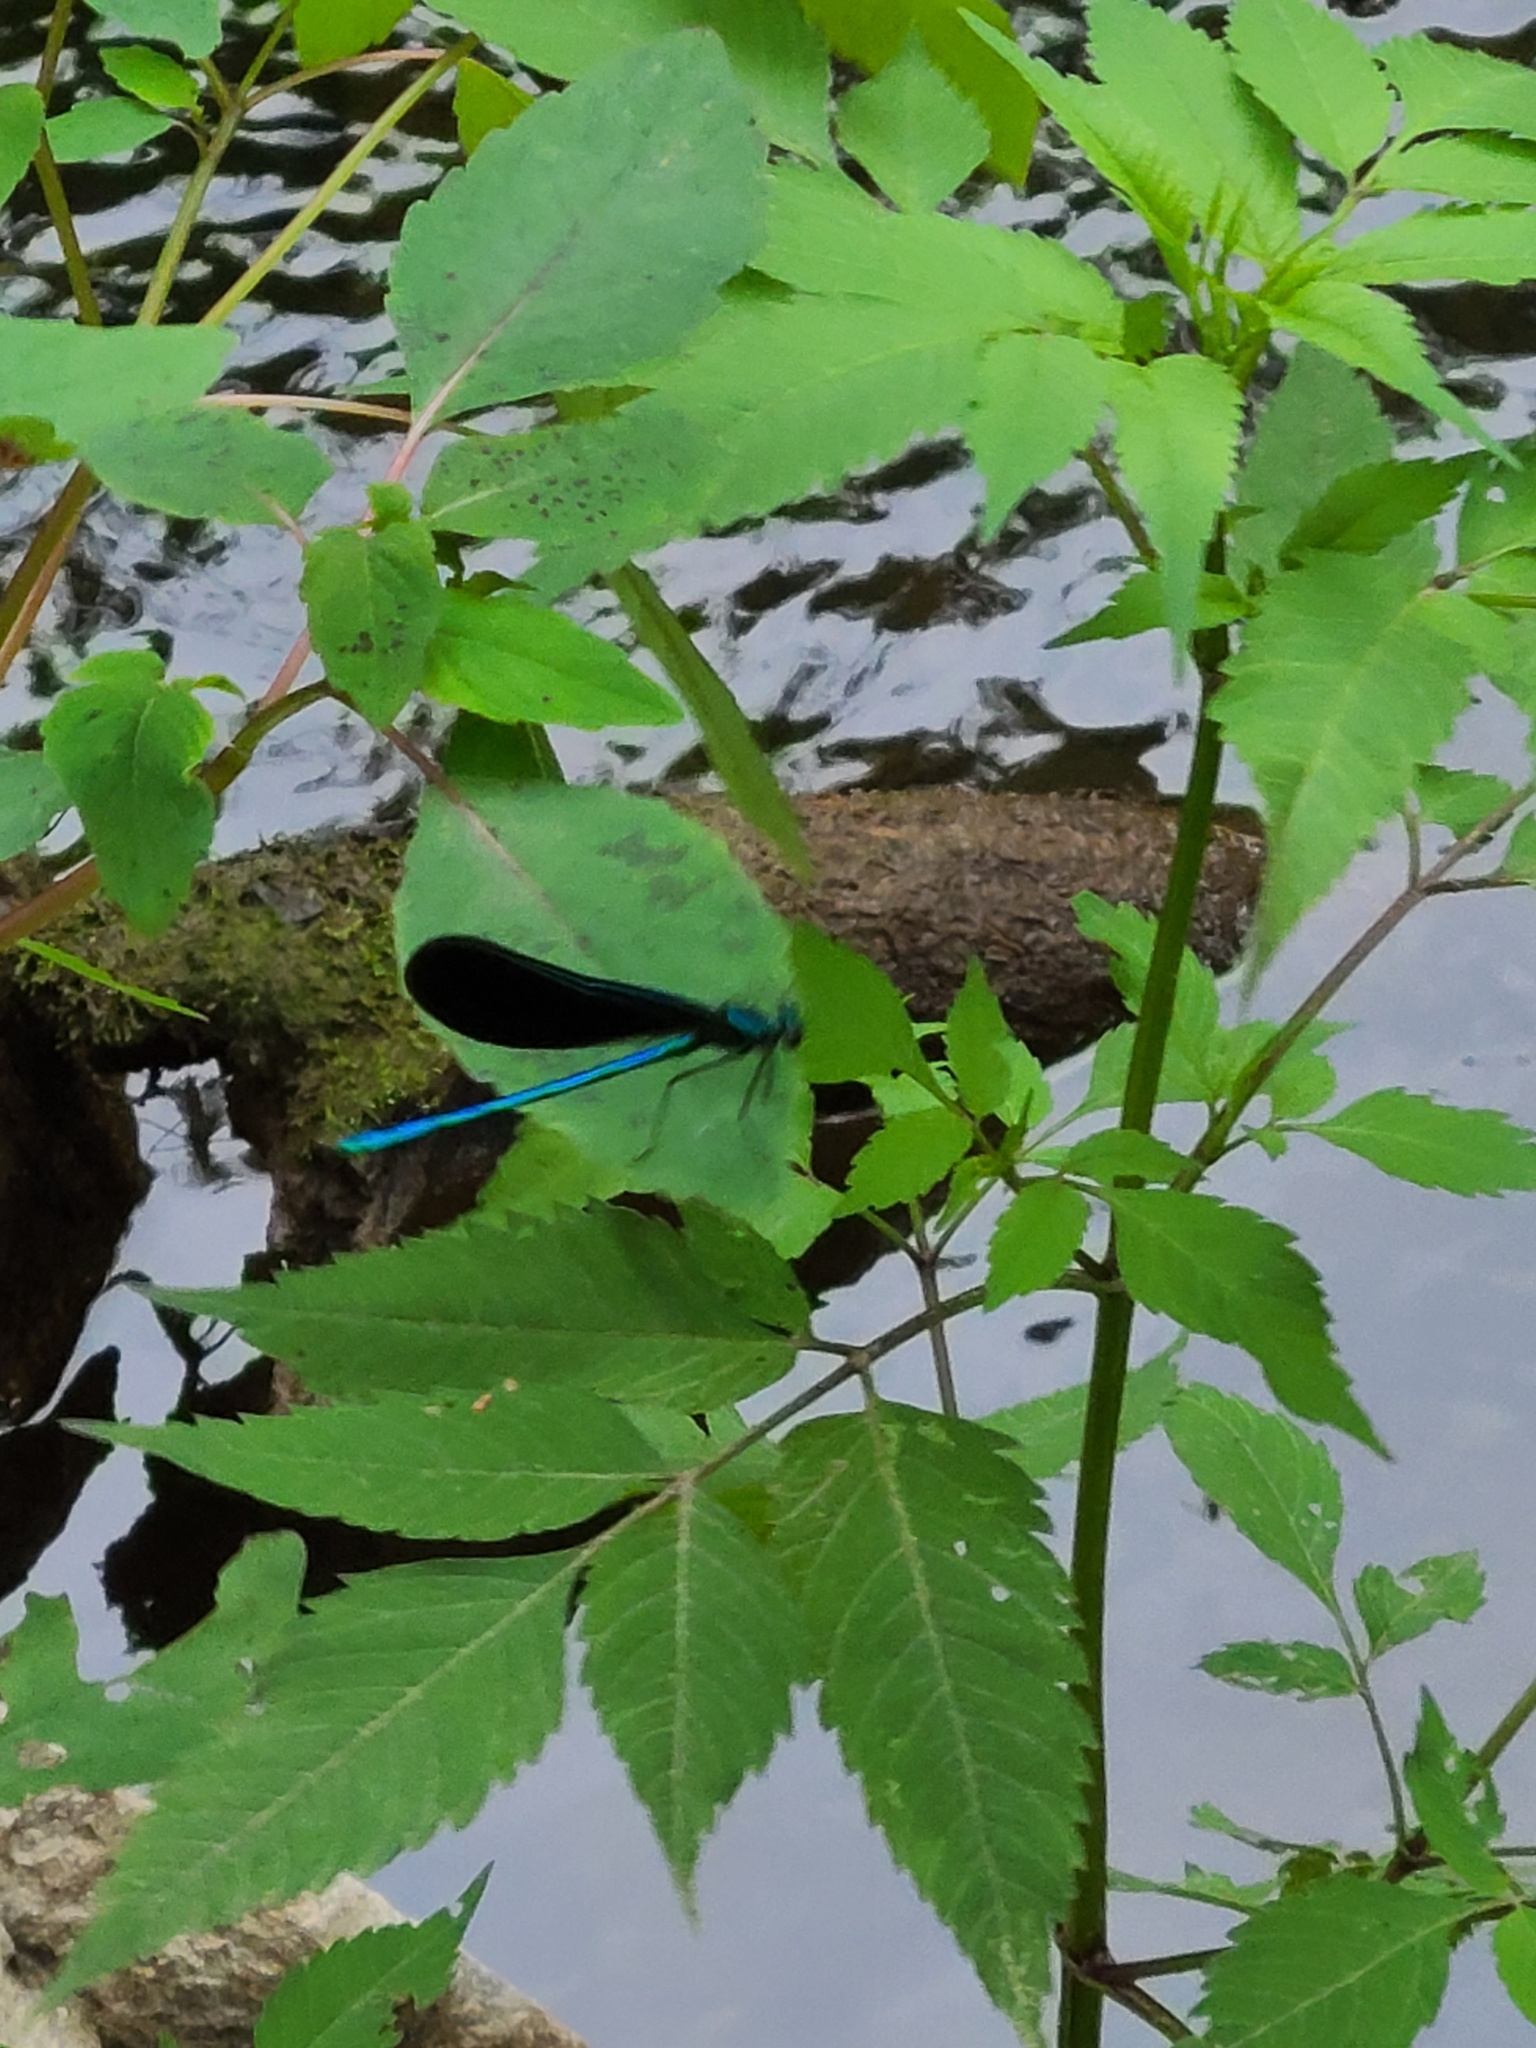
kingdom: Animalia
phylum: Arthropoda
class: Insecta
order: Odonata
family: Calopterygidae
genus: Calopteryx
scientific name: Calopteryx maculata
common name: Ebony jewelwing
